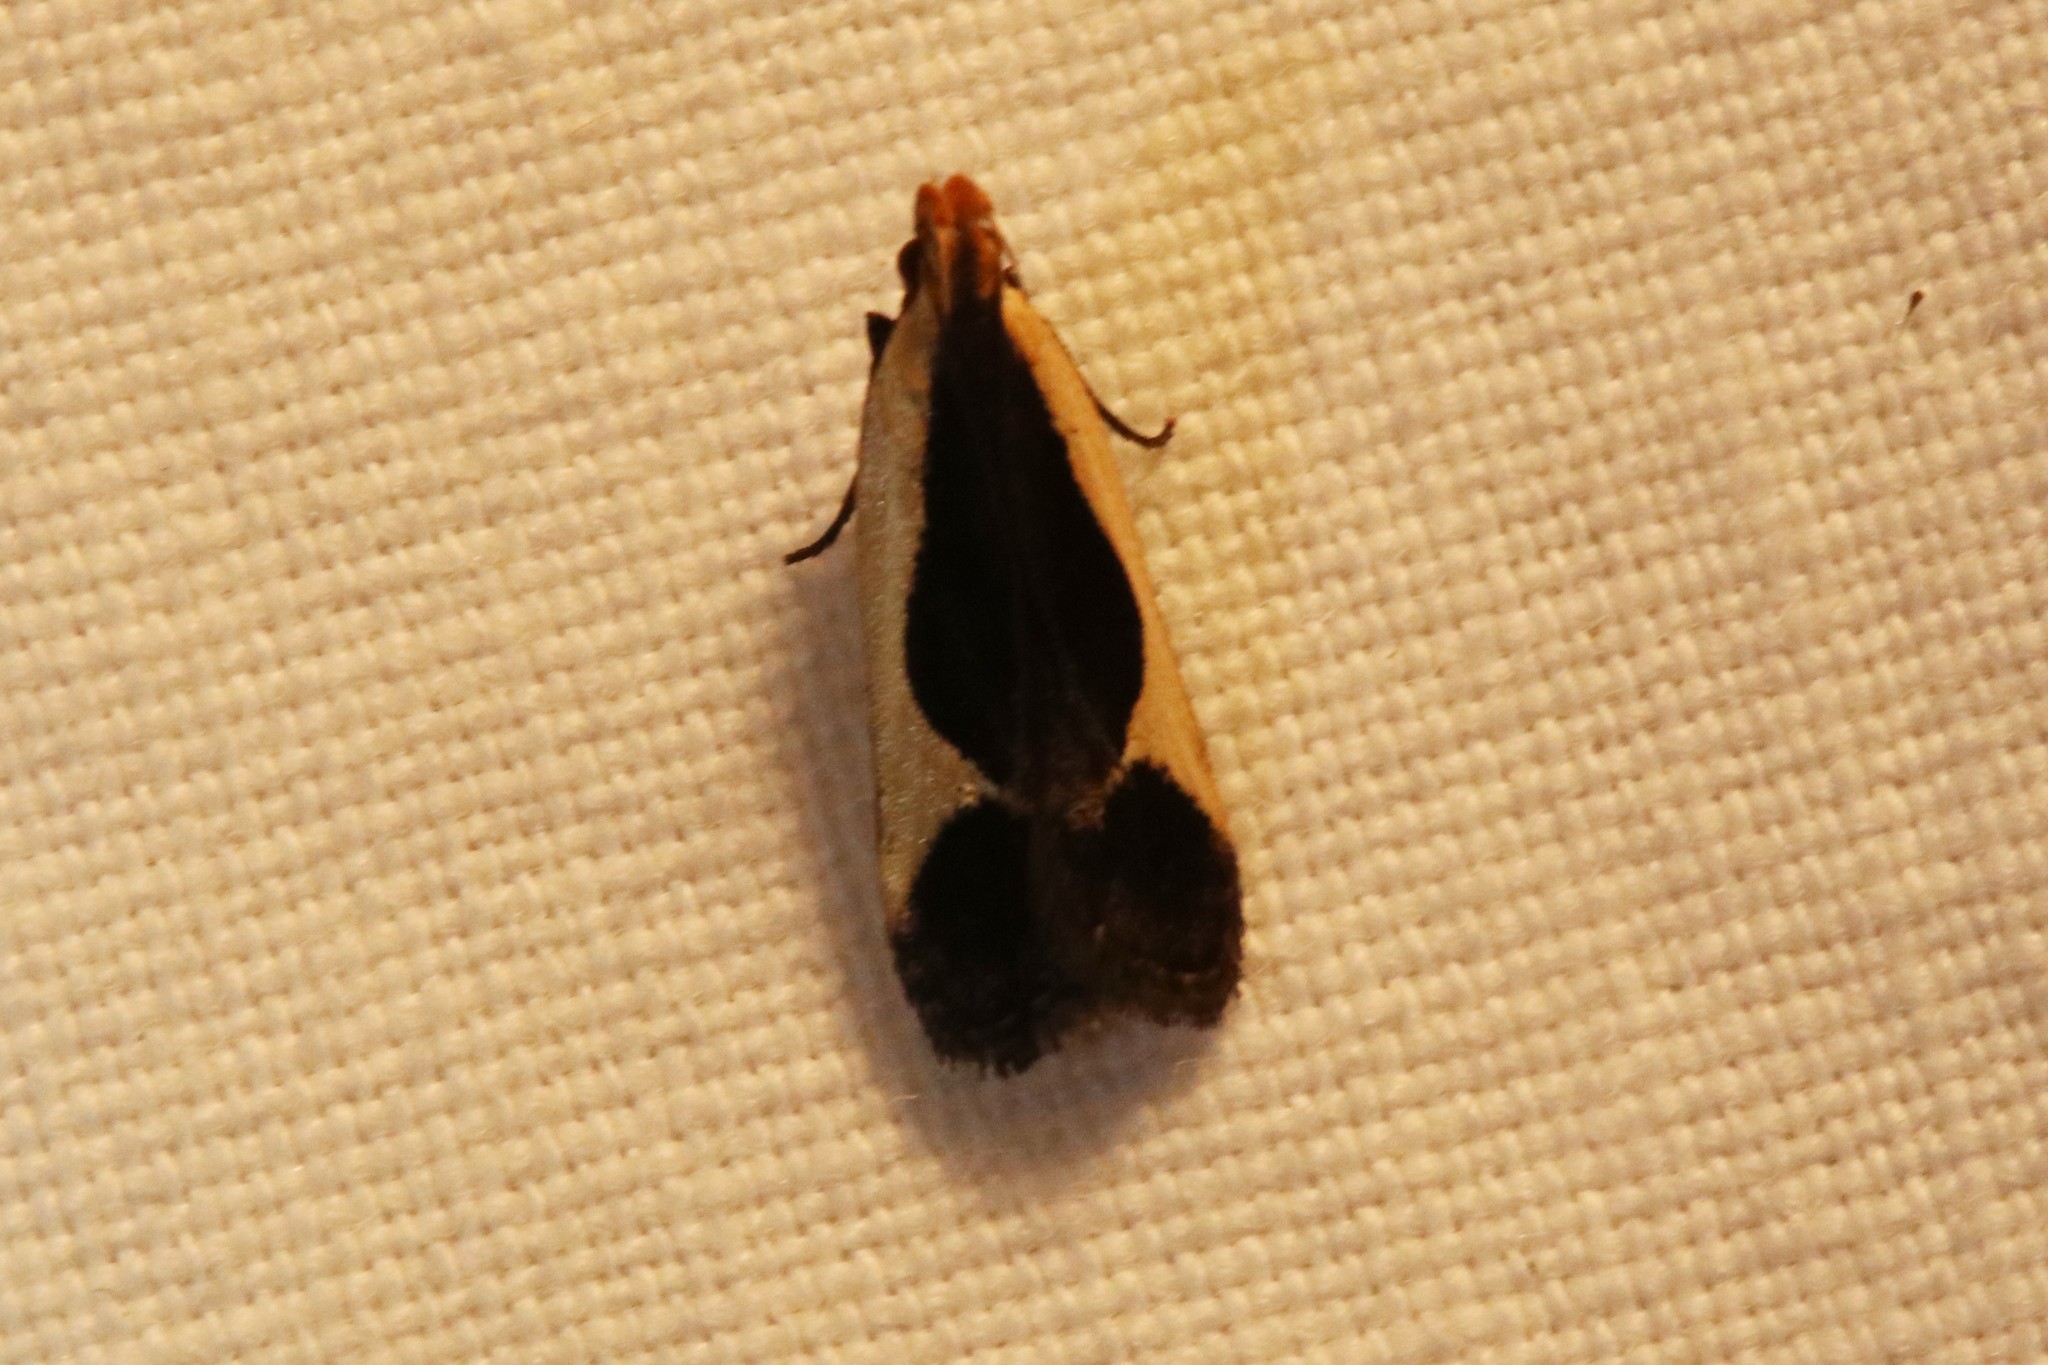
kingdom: Animalia
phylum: Arthropoda
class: Insecta
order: Lepidoptera
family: Gelechiidae
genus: Dichomeris
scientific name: Dichomeris flavocostella
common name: Cream-edged dichomeris moth
